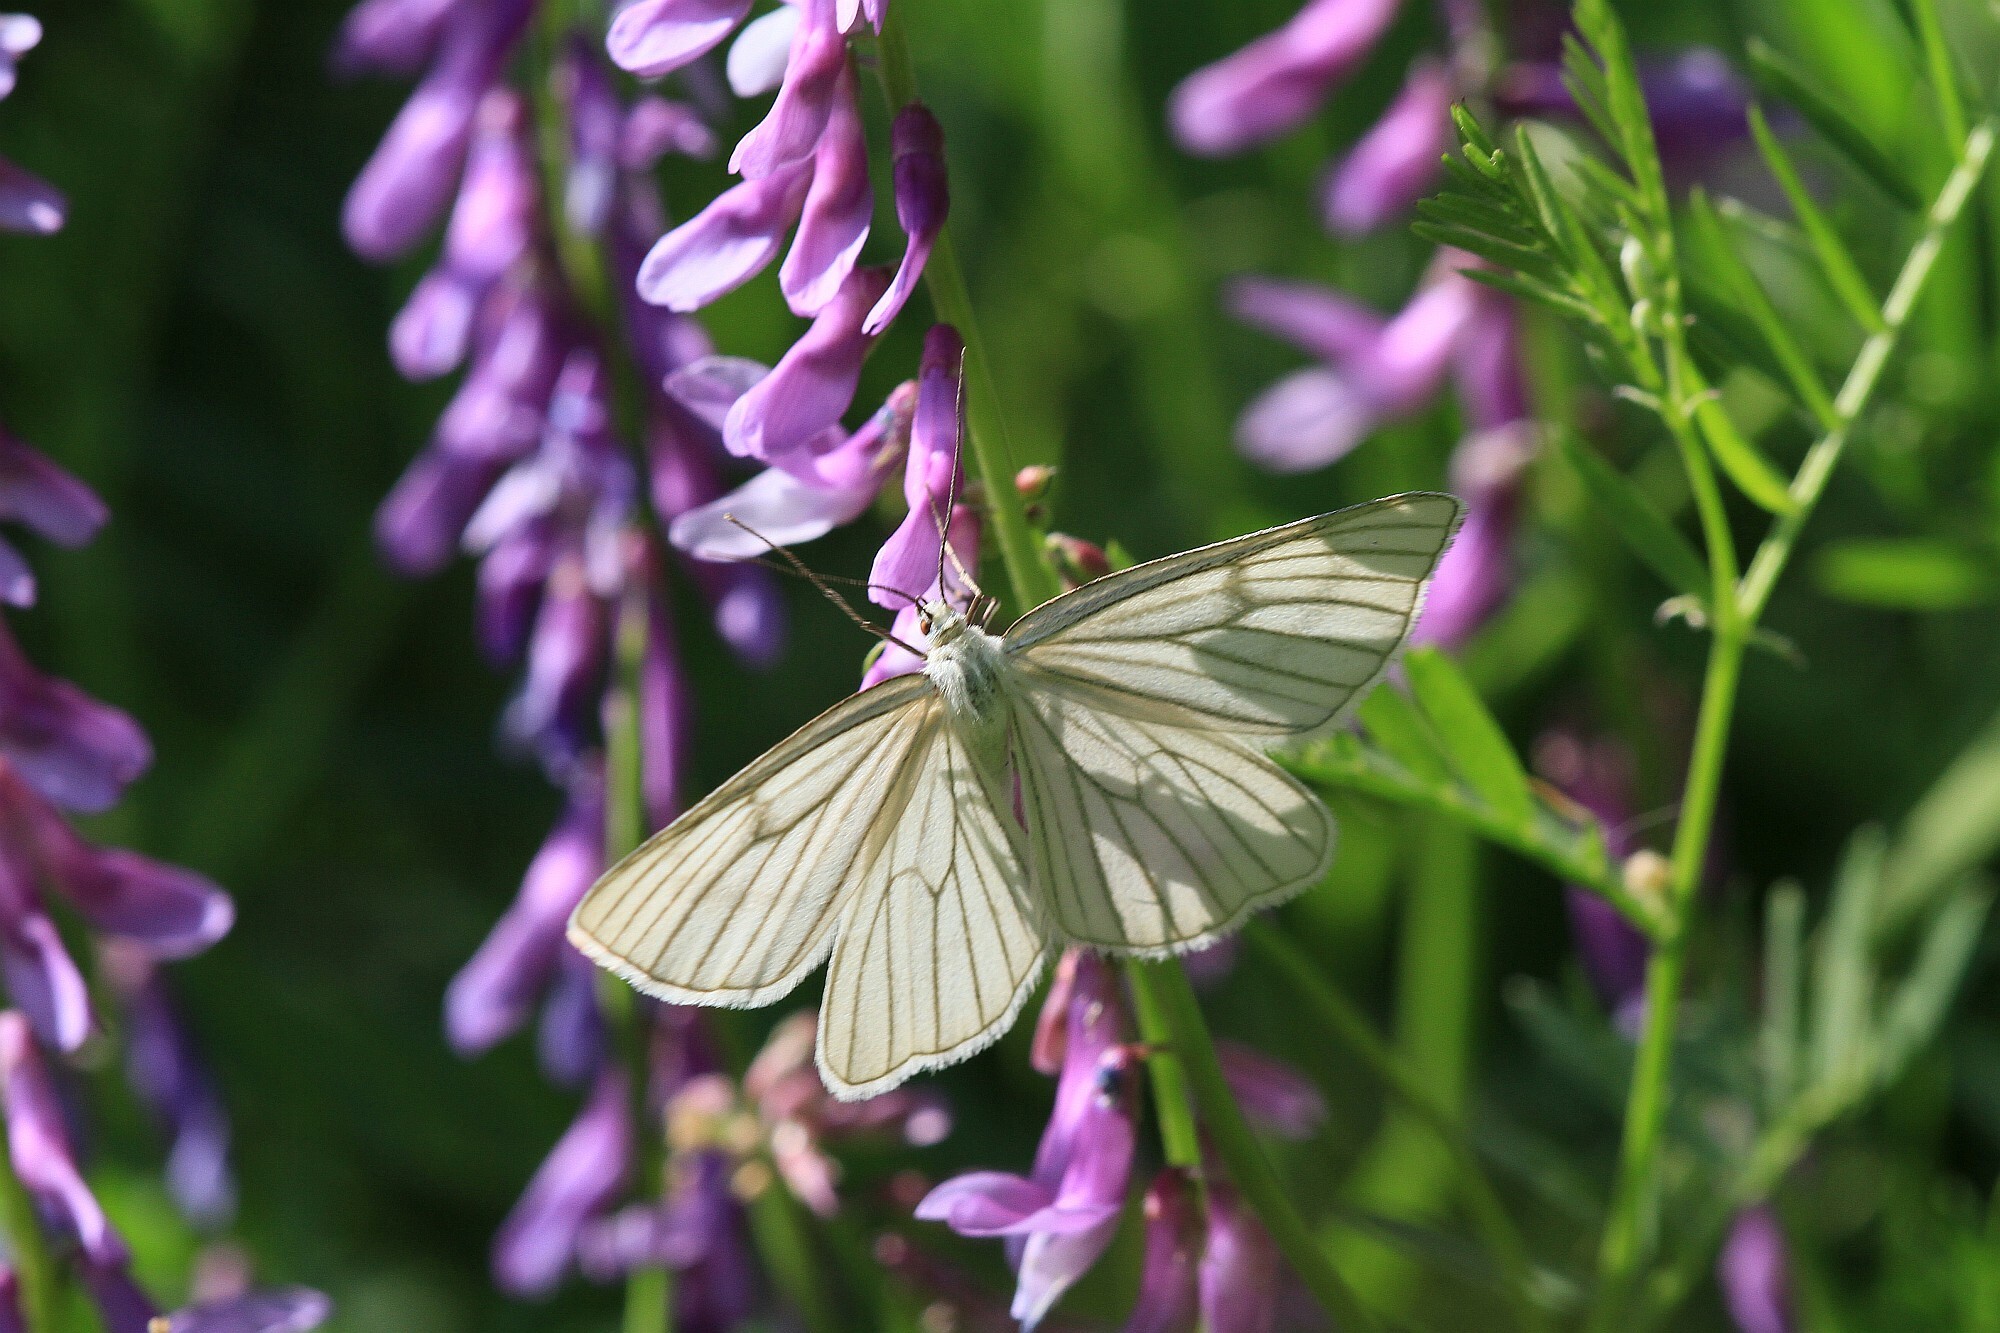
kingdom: Animalia
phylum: Arthropoda
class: Insecta
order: Lepidoptera
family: Geometridae
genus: Siona
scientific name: Siona lineata
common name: Black-veined moth
